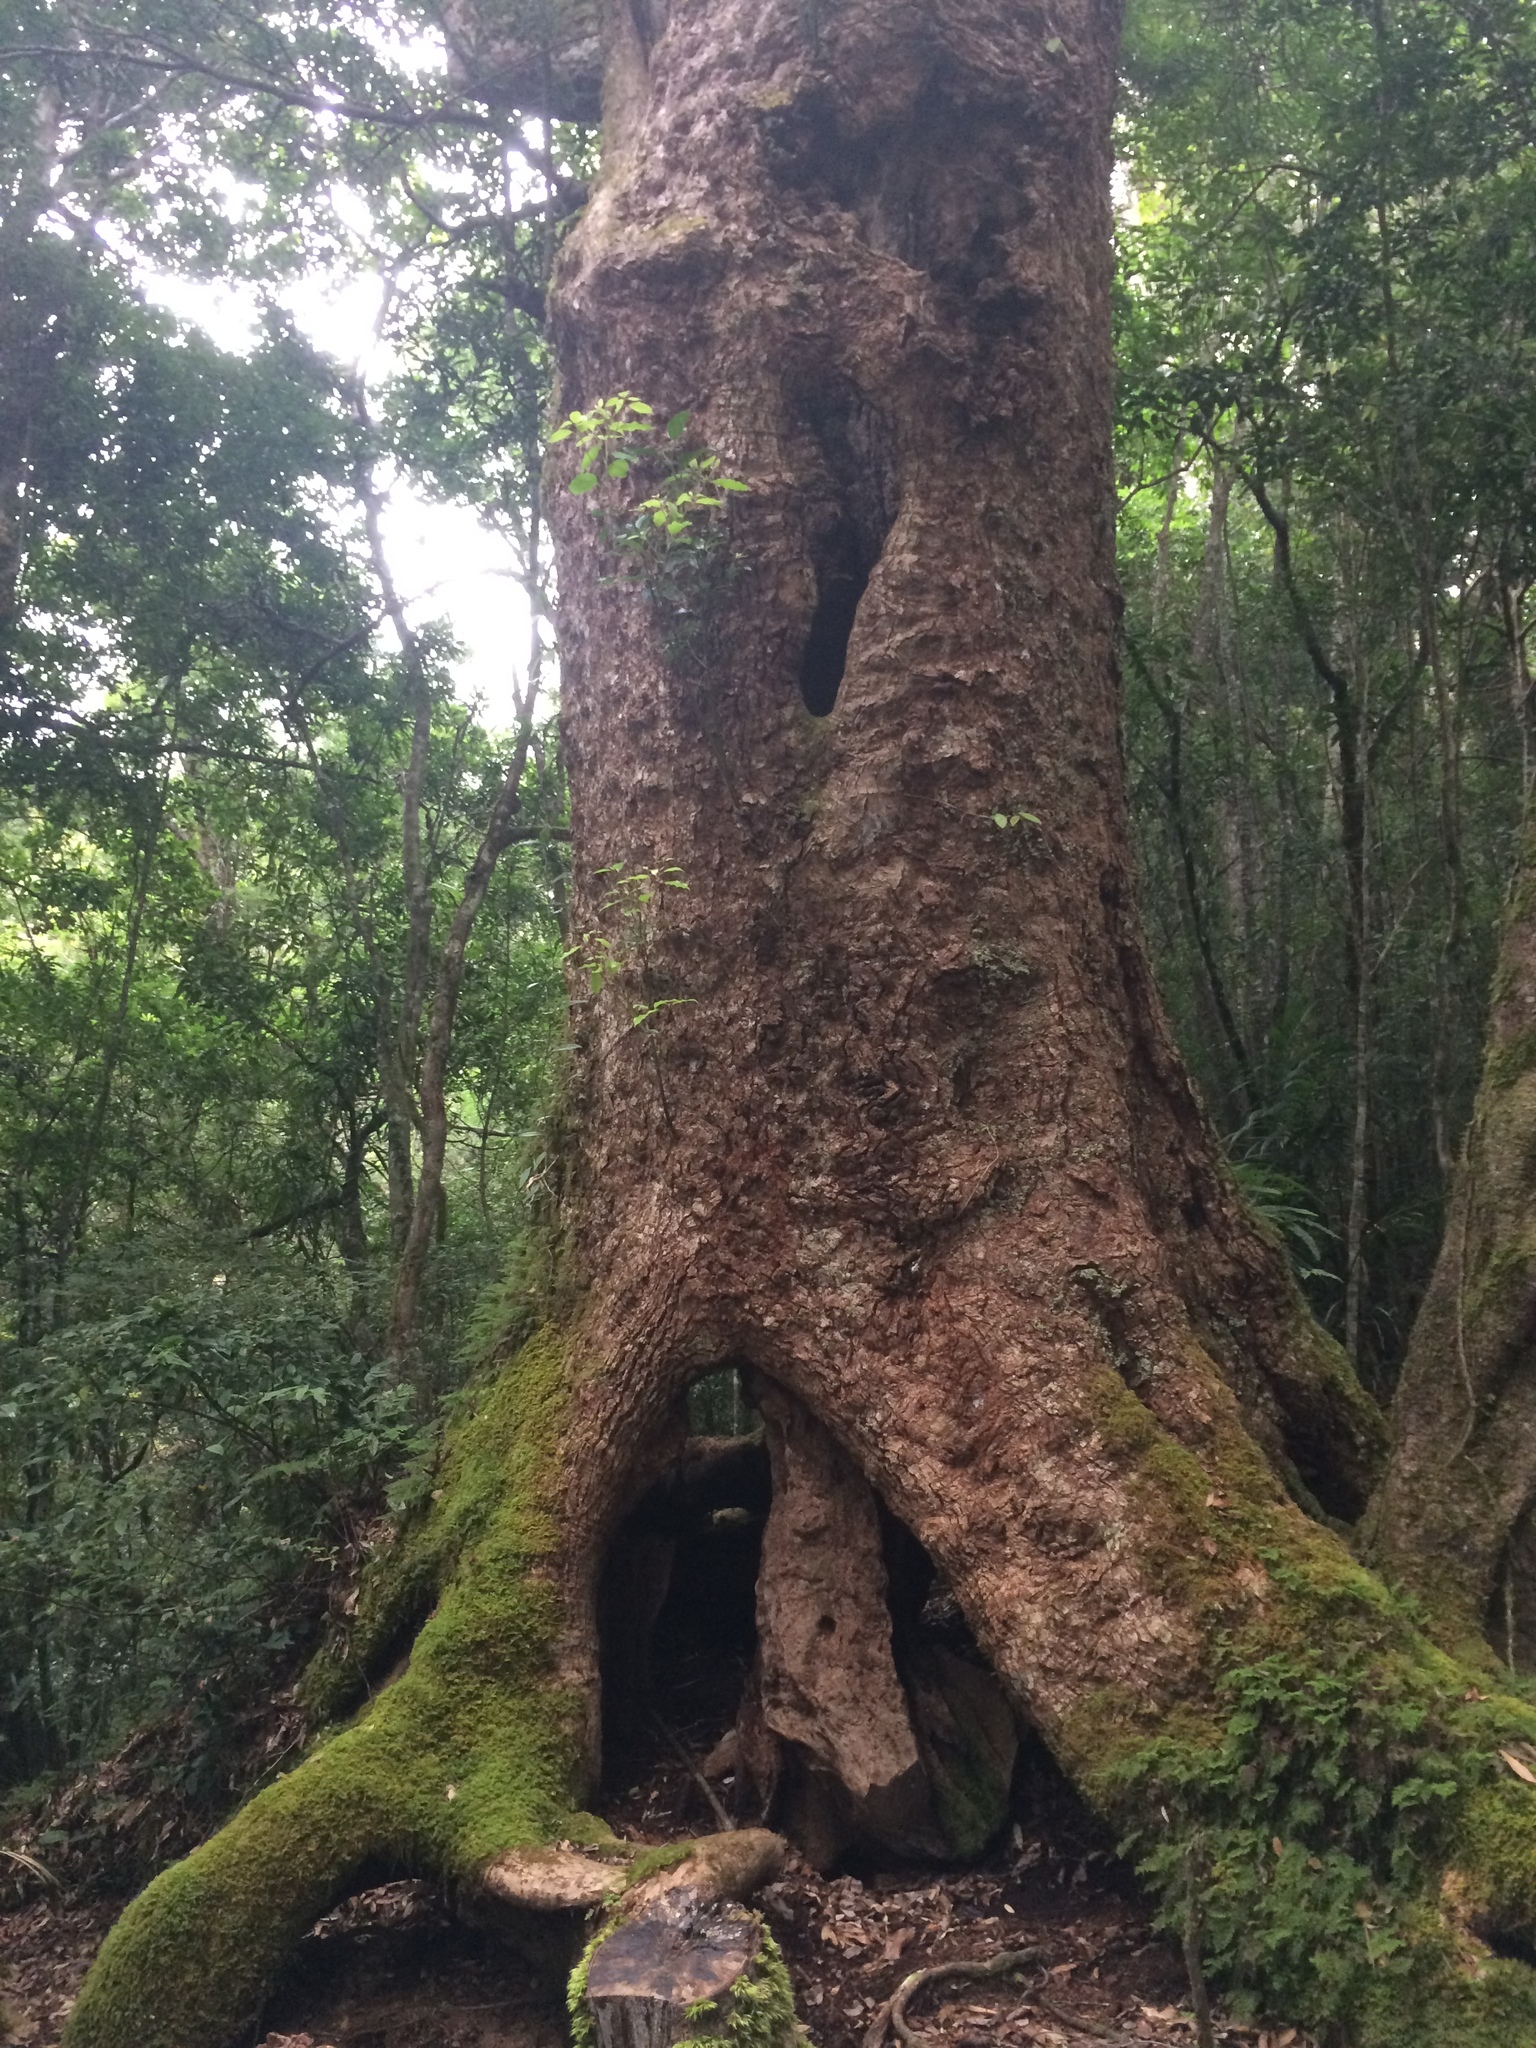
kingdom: Plantae
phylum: Tracheophyta
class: Magnoliopsida
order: Laurales
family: Lauraceae
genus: Cinnamomum
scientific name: Cinnamomum micranthum
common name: Chinese-sassafras
